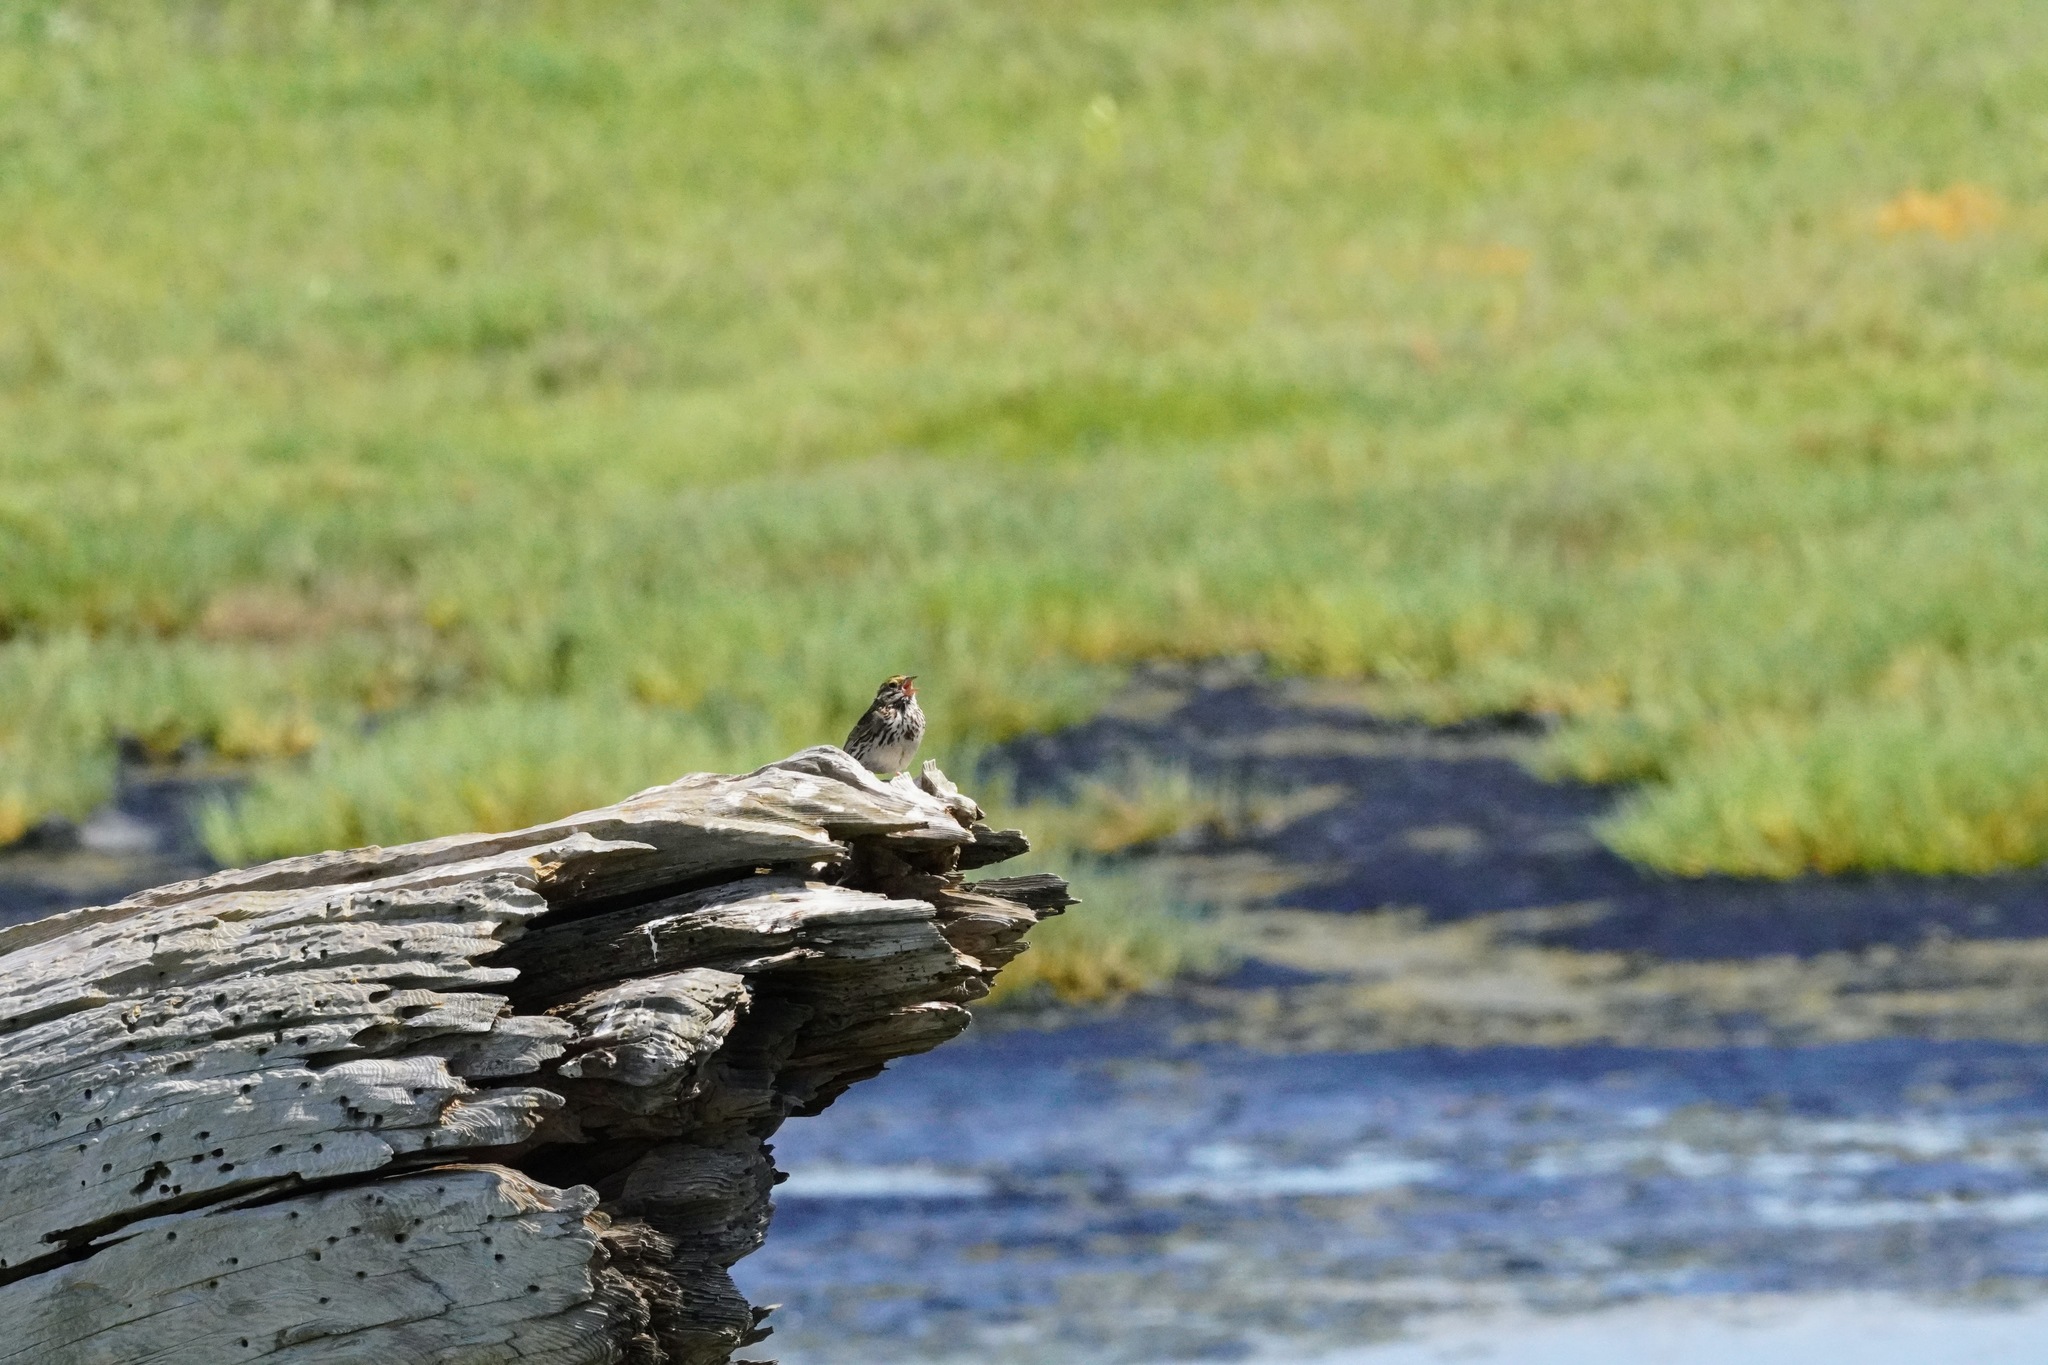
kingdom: Animalia
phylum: Chordata
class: Aves
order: Passeriformes
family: Passerellidae
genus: Passerculus
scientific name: Passerculus sandwichensis
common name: Savannah sparrow
